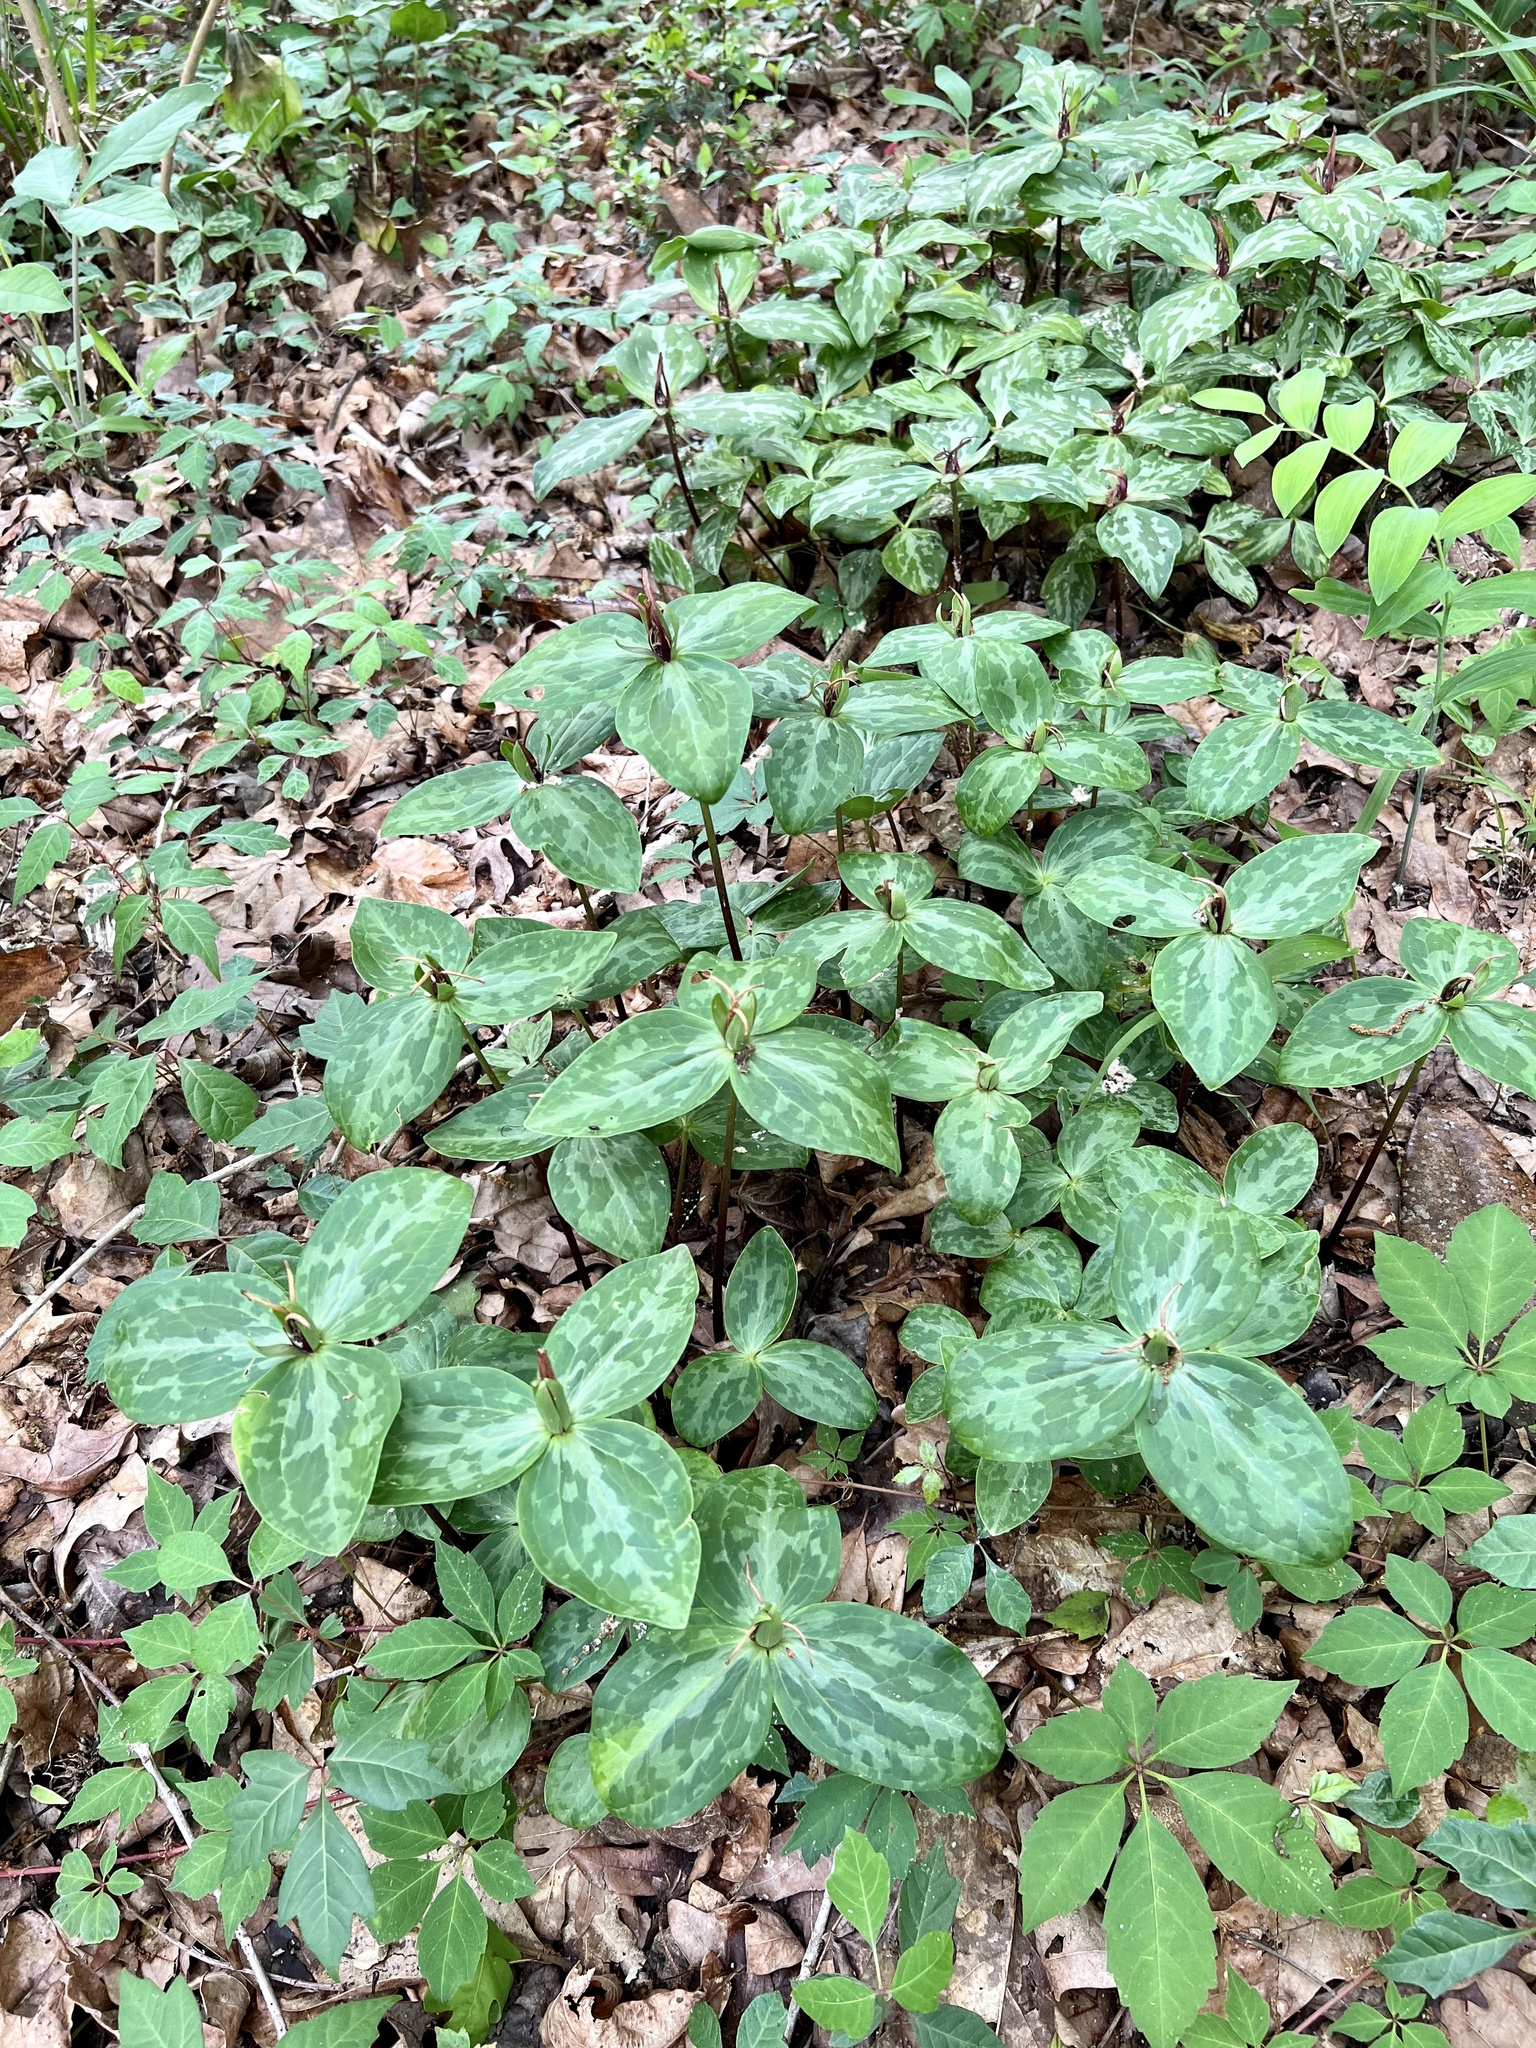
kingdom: Plantae
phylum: Tracheophyta
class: Liliopsida
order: Liliales
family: Melanthiaceae
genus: Trillium
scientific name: Trillium gracile
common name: Graceful trillium
